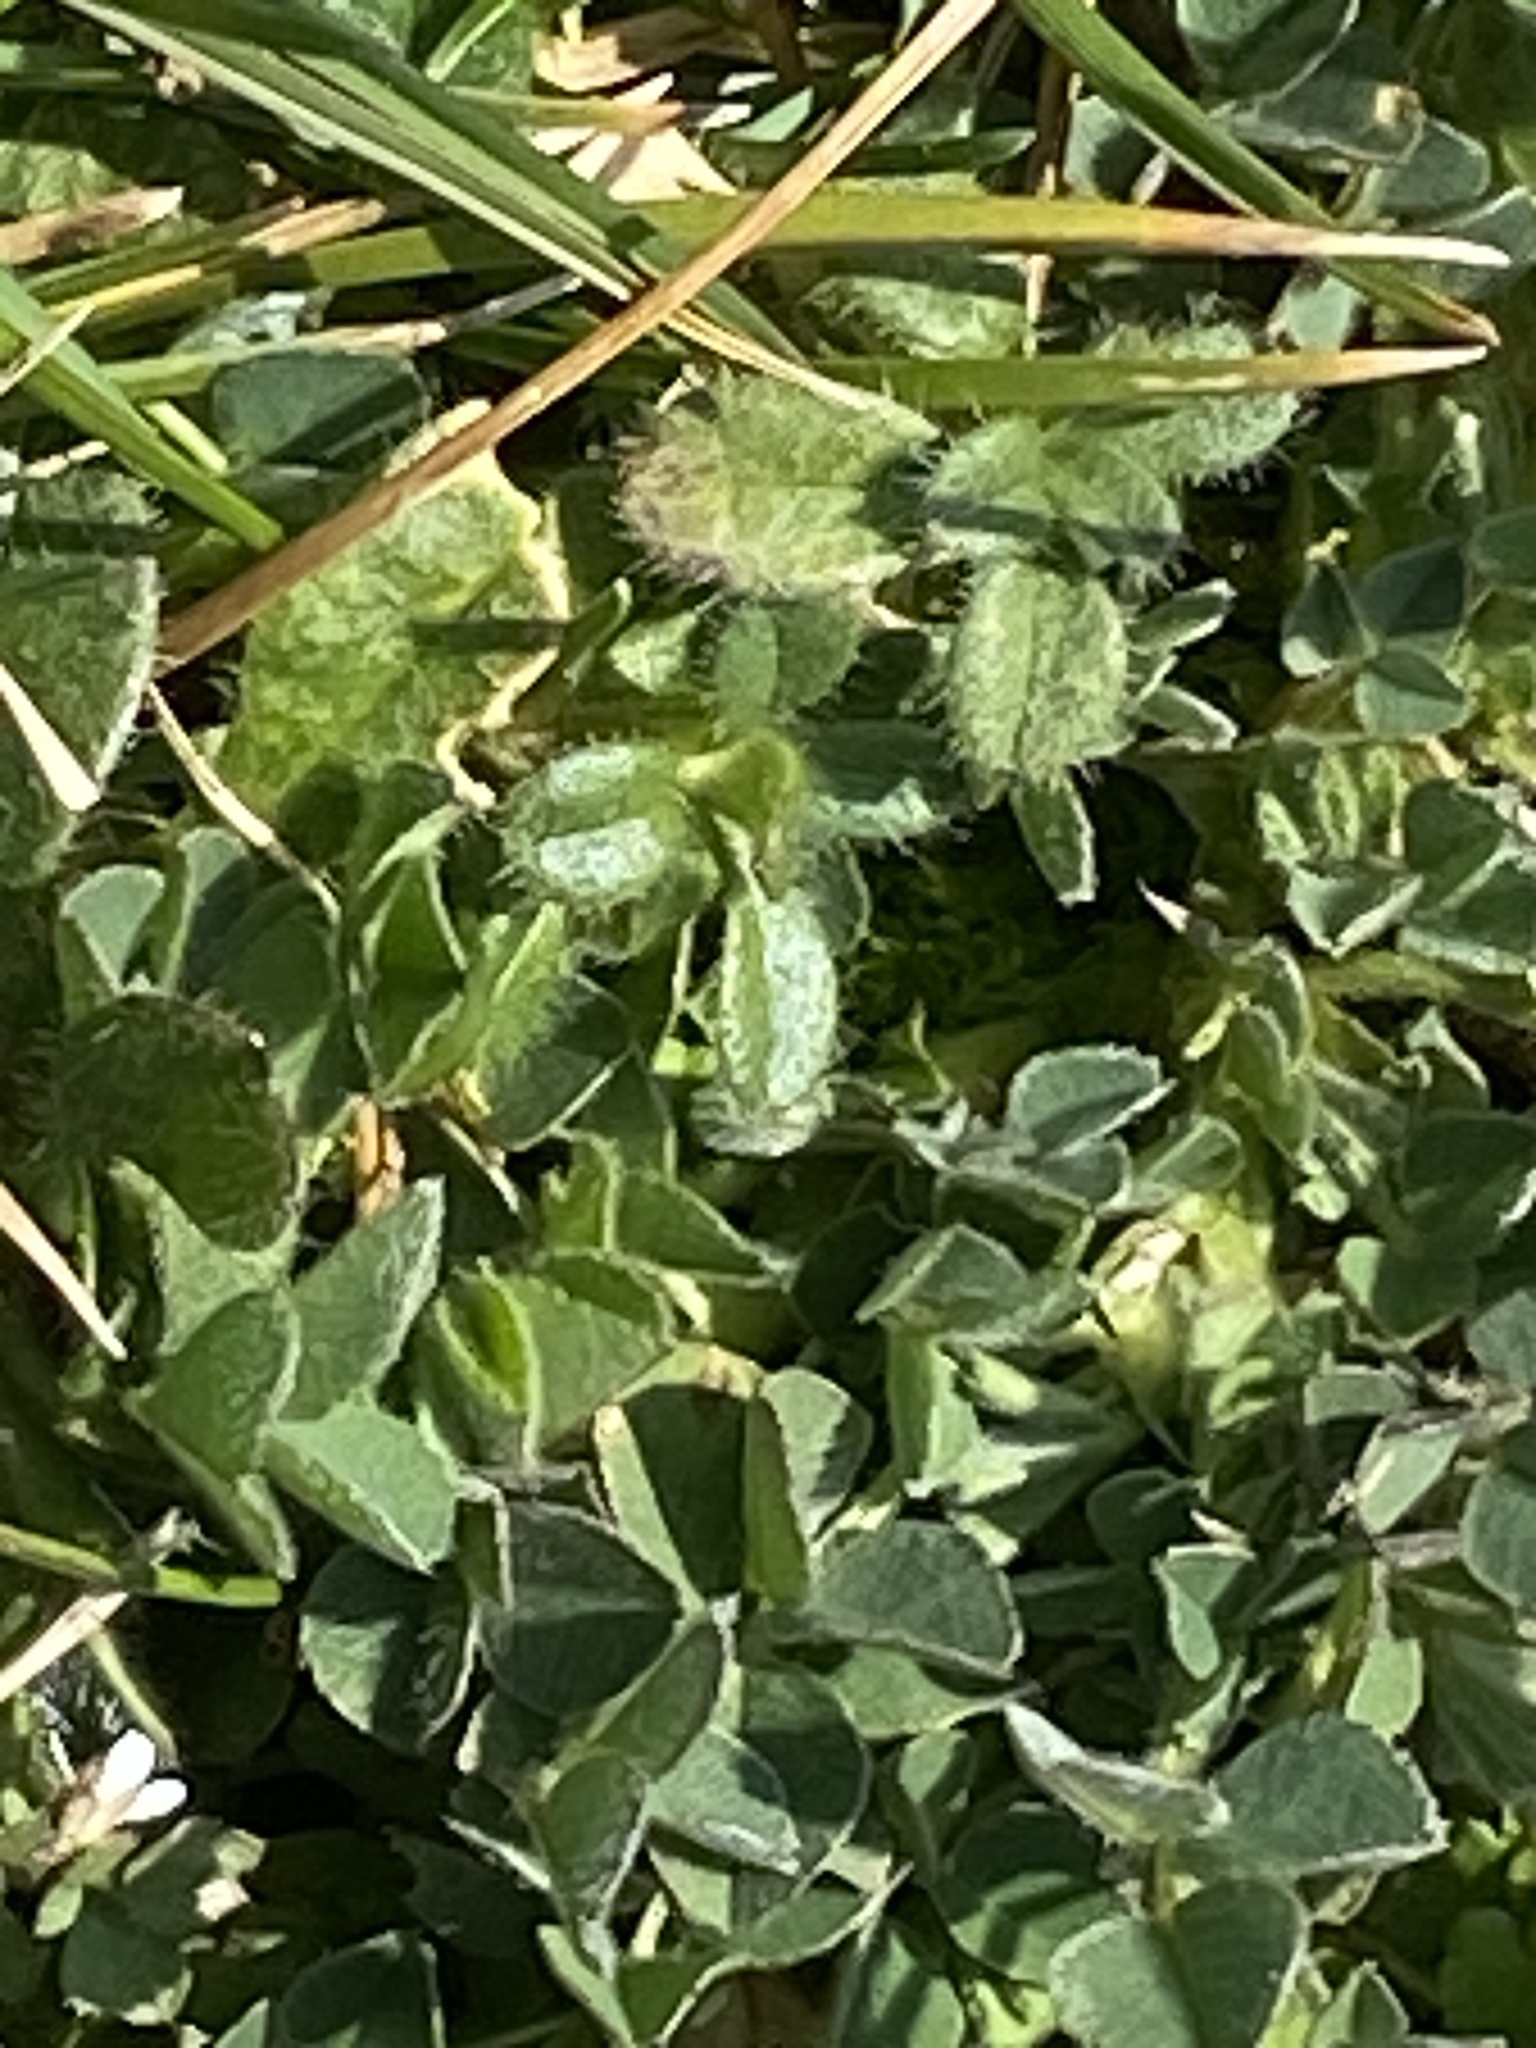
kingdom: Plantae
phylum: Tracheophyta
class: Magnoliopsida
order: Fabales
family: Fabaceae
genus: Medicago
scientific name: Medicago lupulina
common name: Black medick
